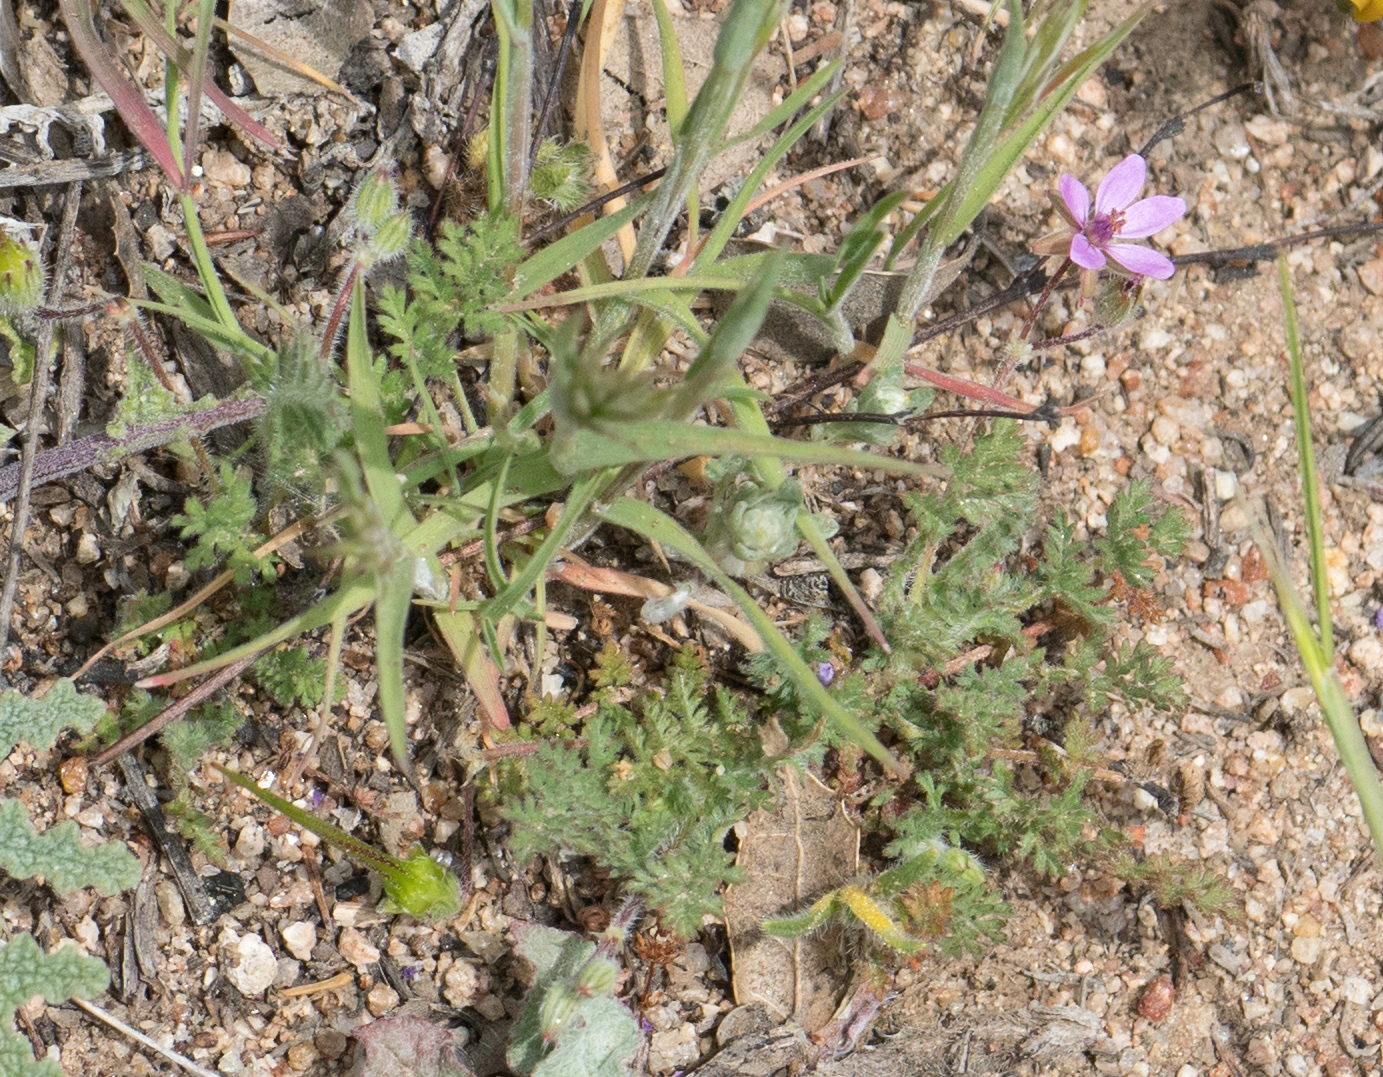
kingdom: Plantae
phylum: Tracheophyta
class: Magnoliopsida
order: Geraniales
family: Geraniaceae
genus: Erodium
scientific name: Erodium cicutarium
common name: Common stork's-bill
